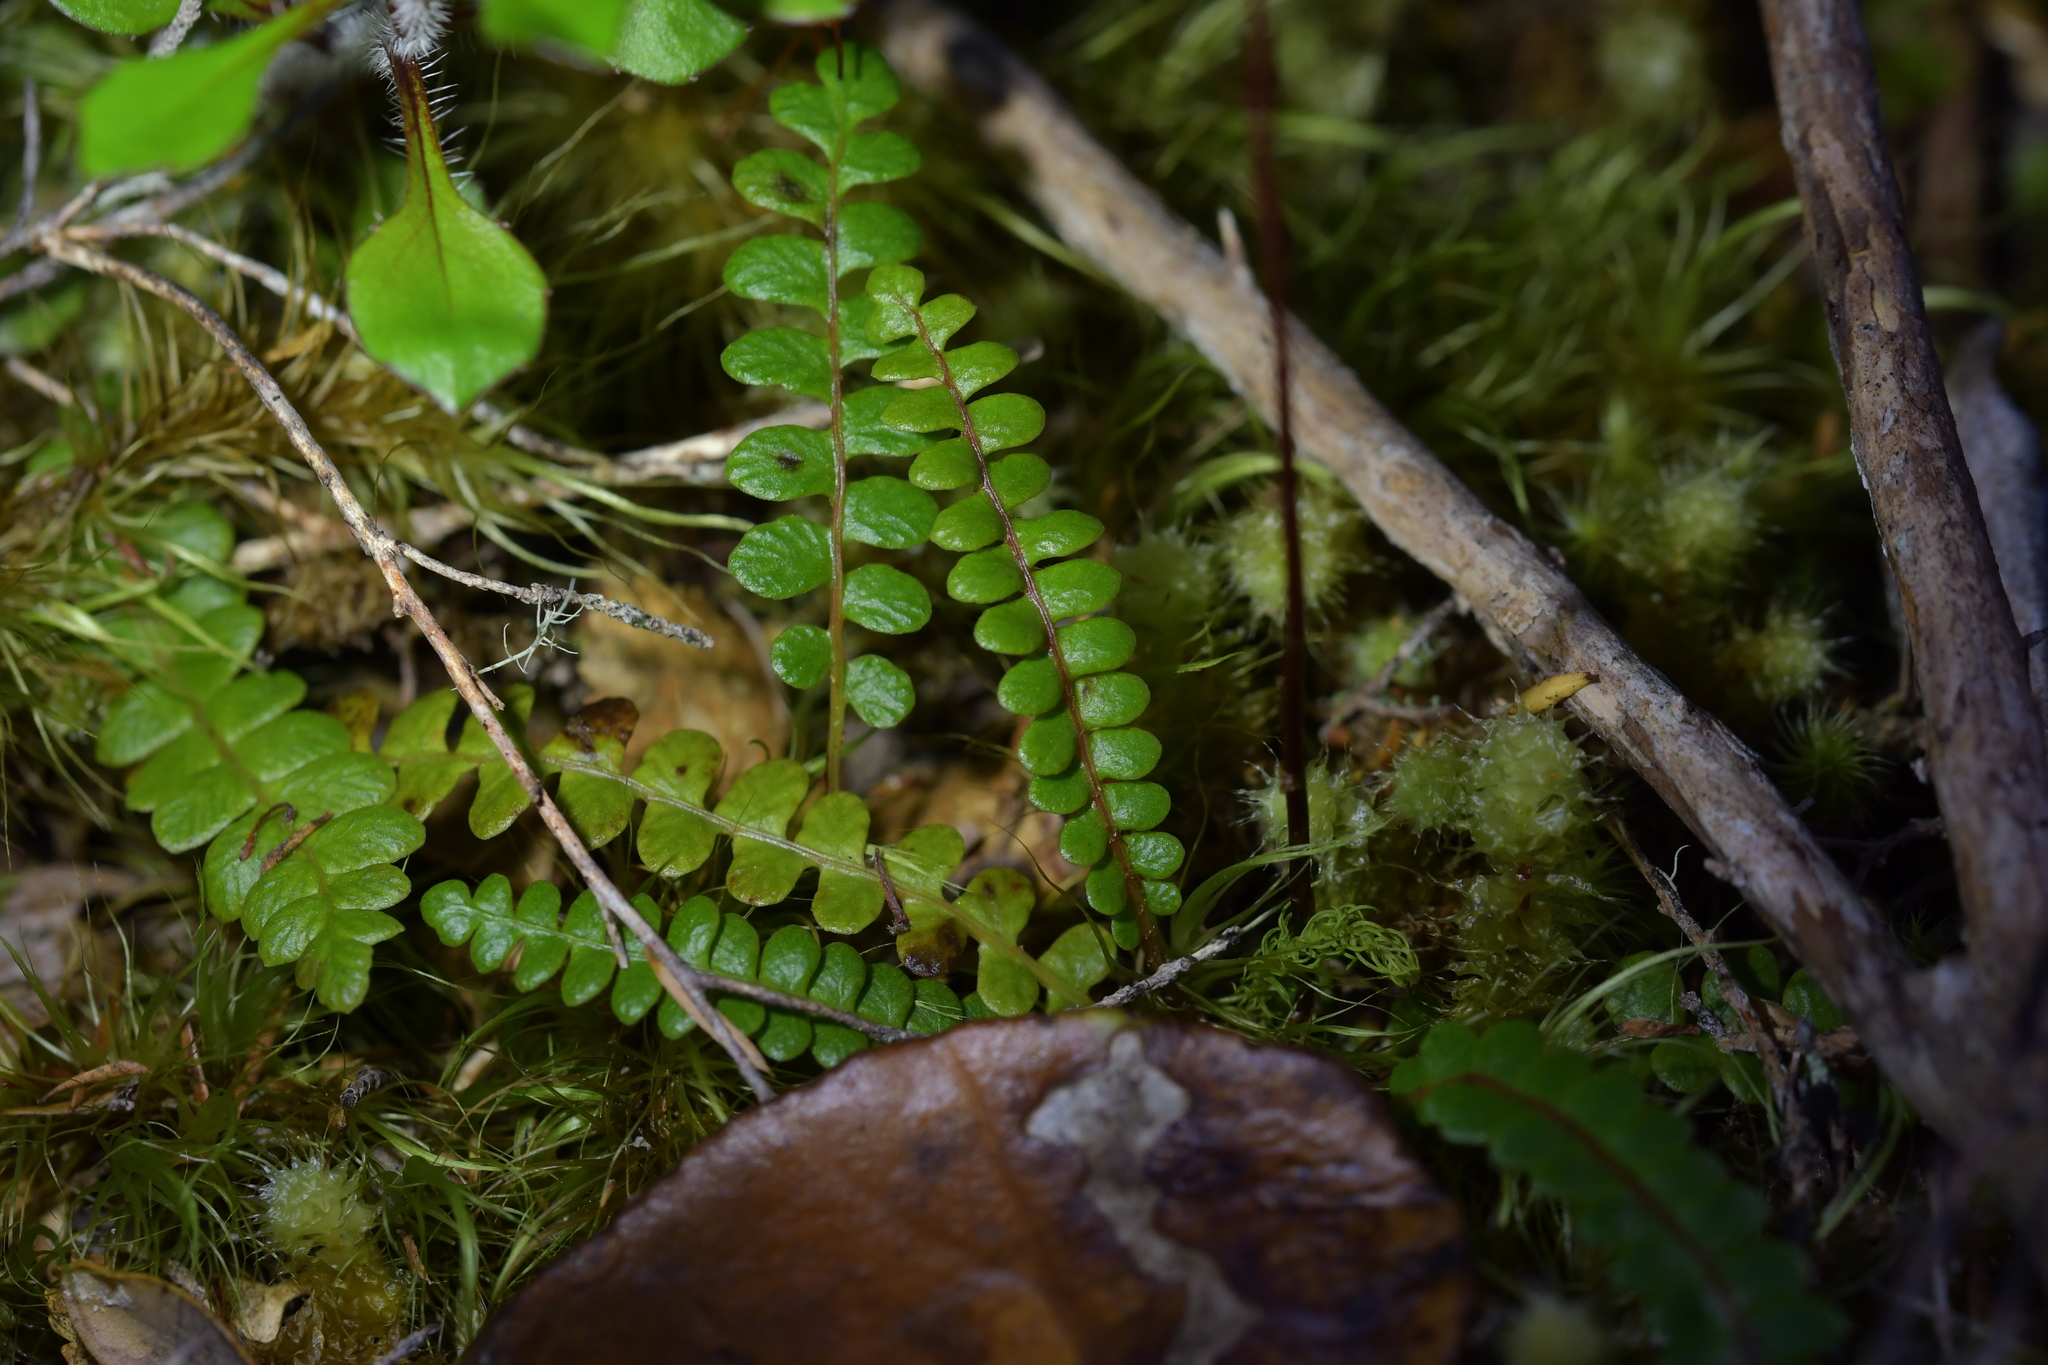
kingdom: Plantae
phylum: Tracheophyta
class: Polypodiopsida
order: Polypodiales
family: Blechnaceae
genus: Austroblechnum
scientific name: Austroblechnum penna-marina
